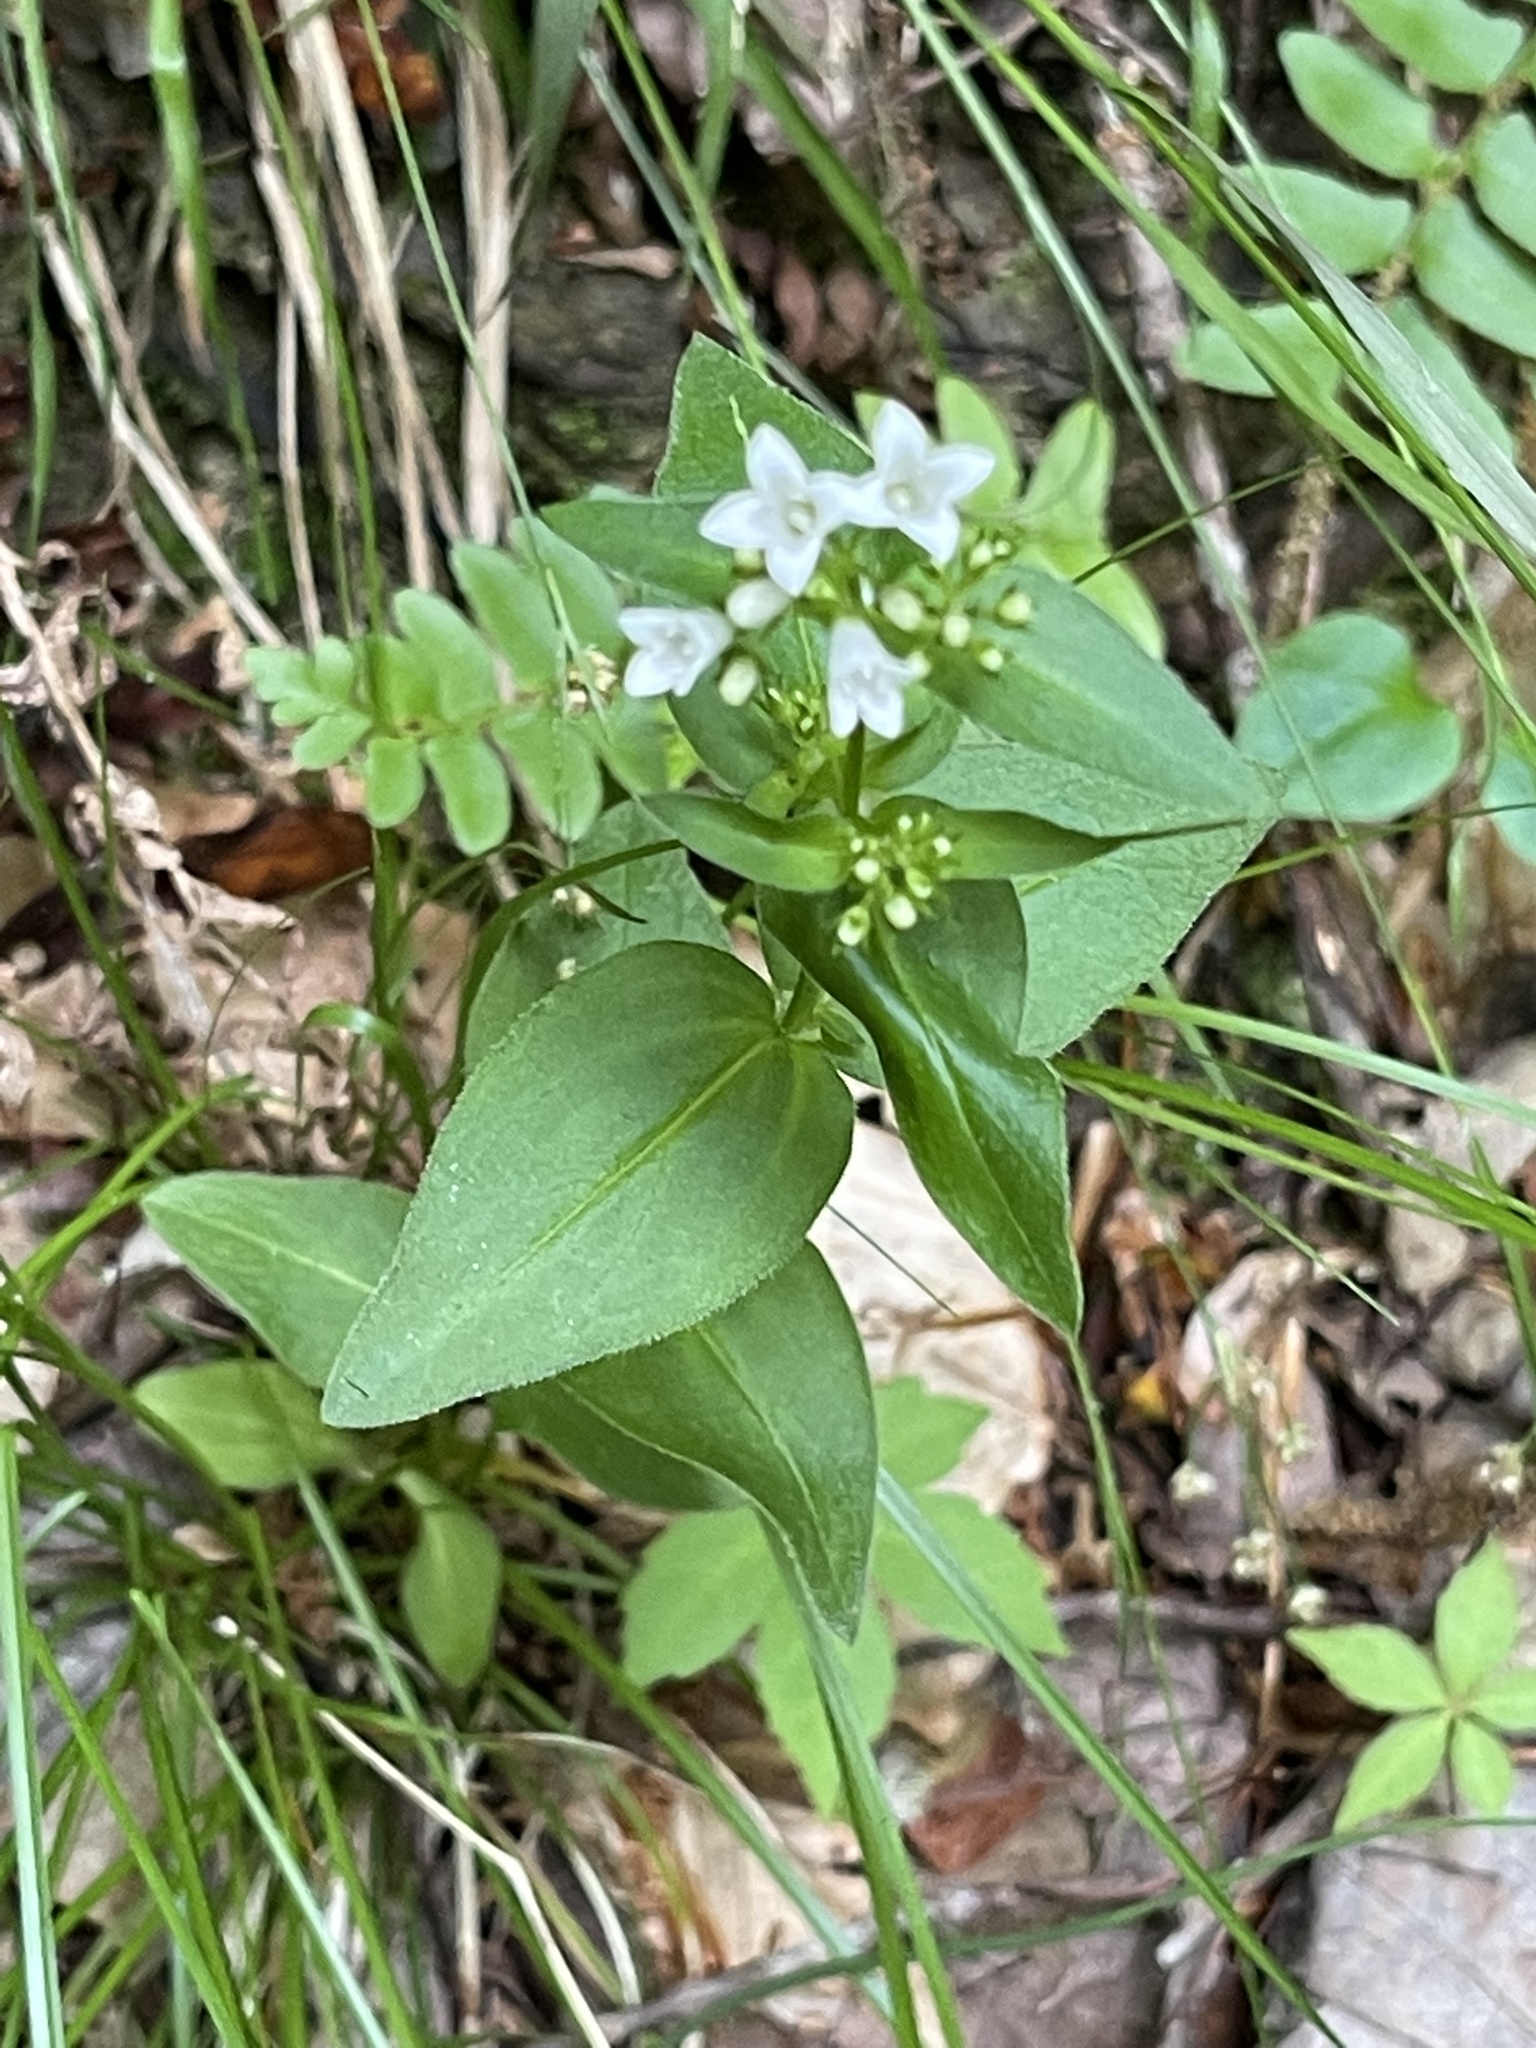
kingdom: Plantae
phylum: Tracheophyta
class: Magnoliopsida
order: Gentianales
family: Rubiaceae
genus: Houstonia
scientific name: Houstonia purpurea
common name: Summer bluet
